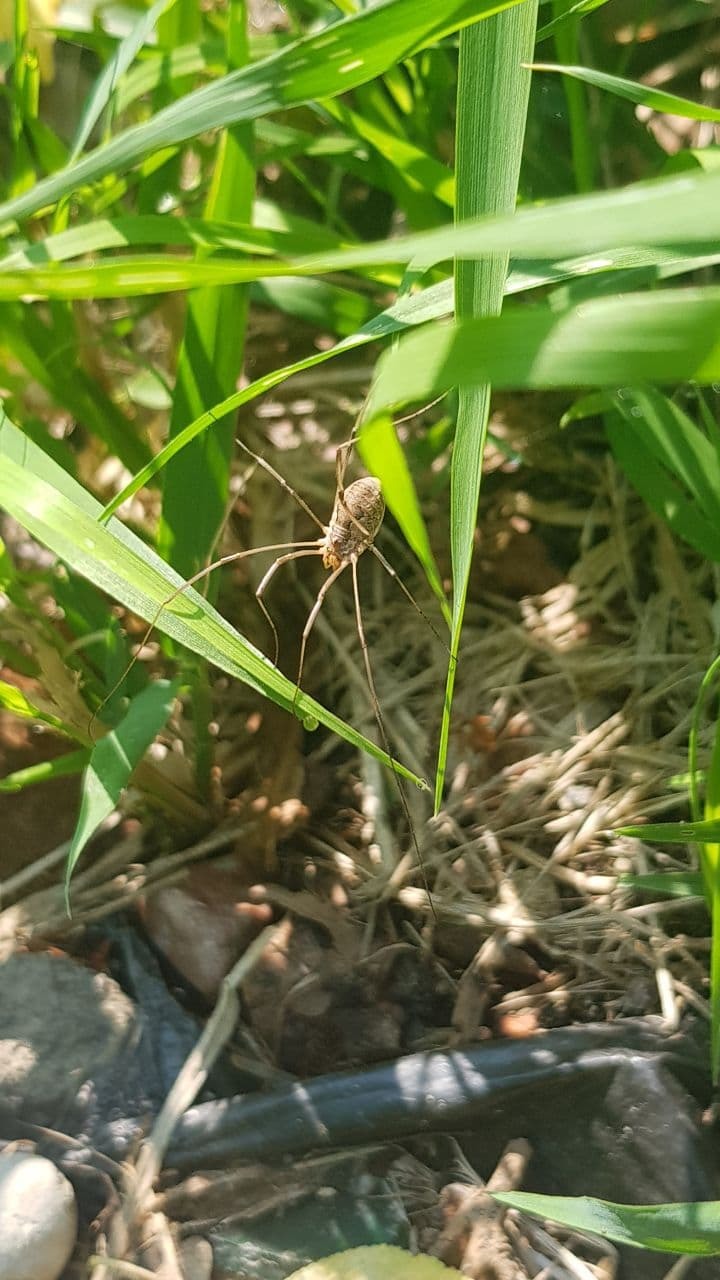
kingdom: Animalia
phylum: Arthropoda
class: Arachnida
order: Opiliones
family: Phalangiidae
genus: Phalangium
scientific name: Phalangium opilio
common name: Daddy longleg
